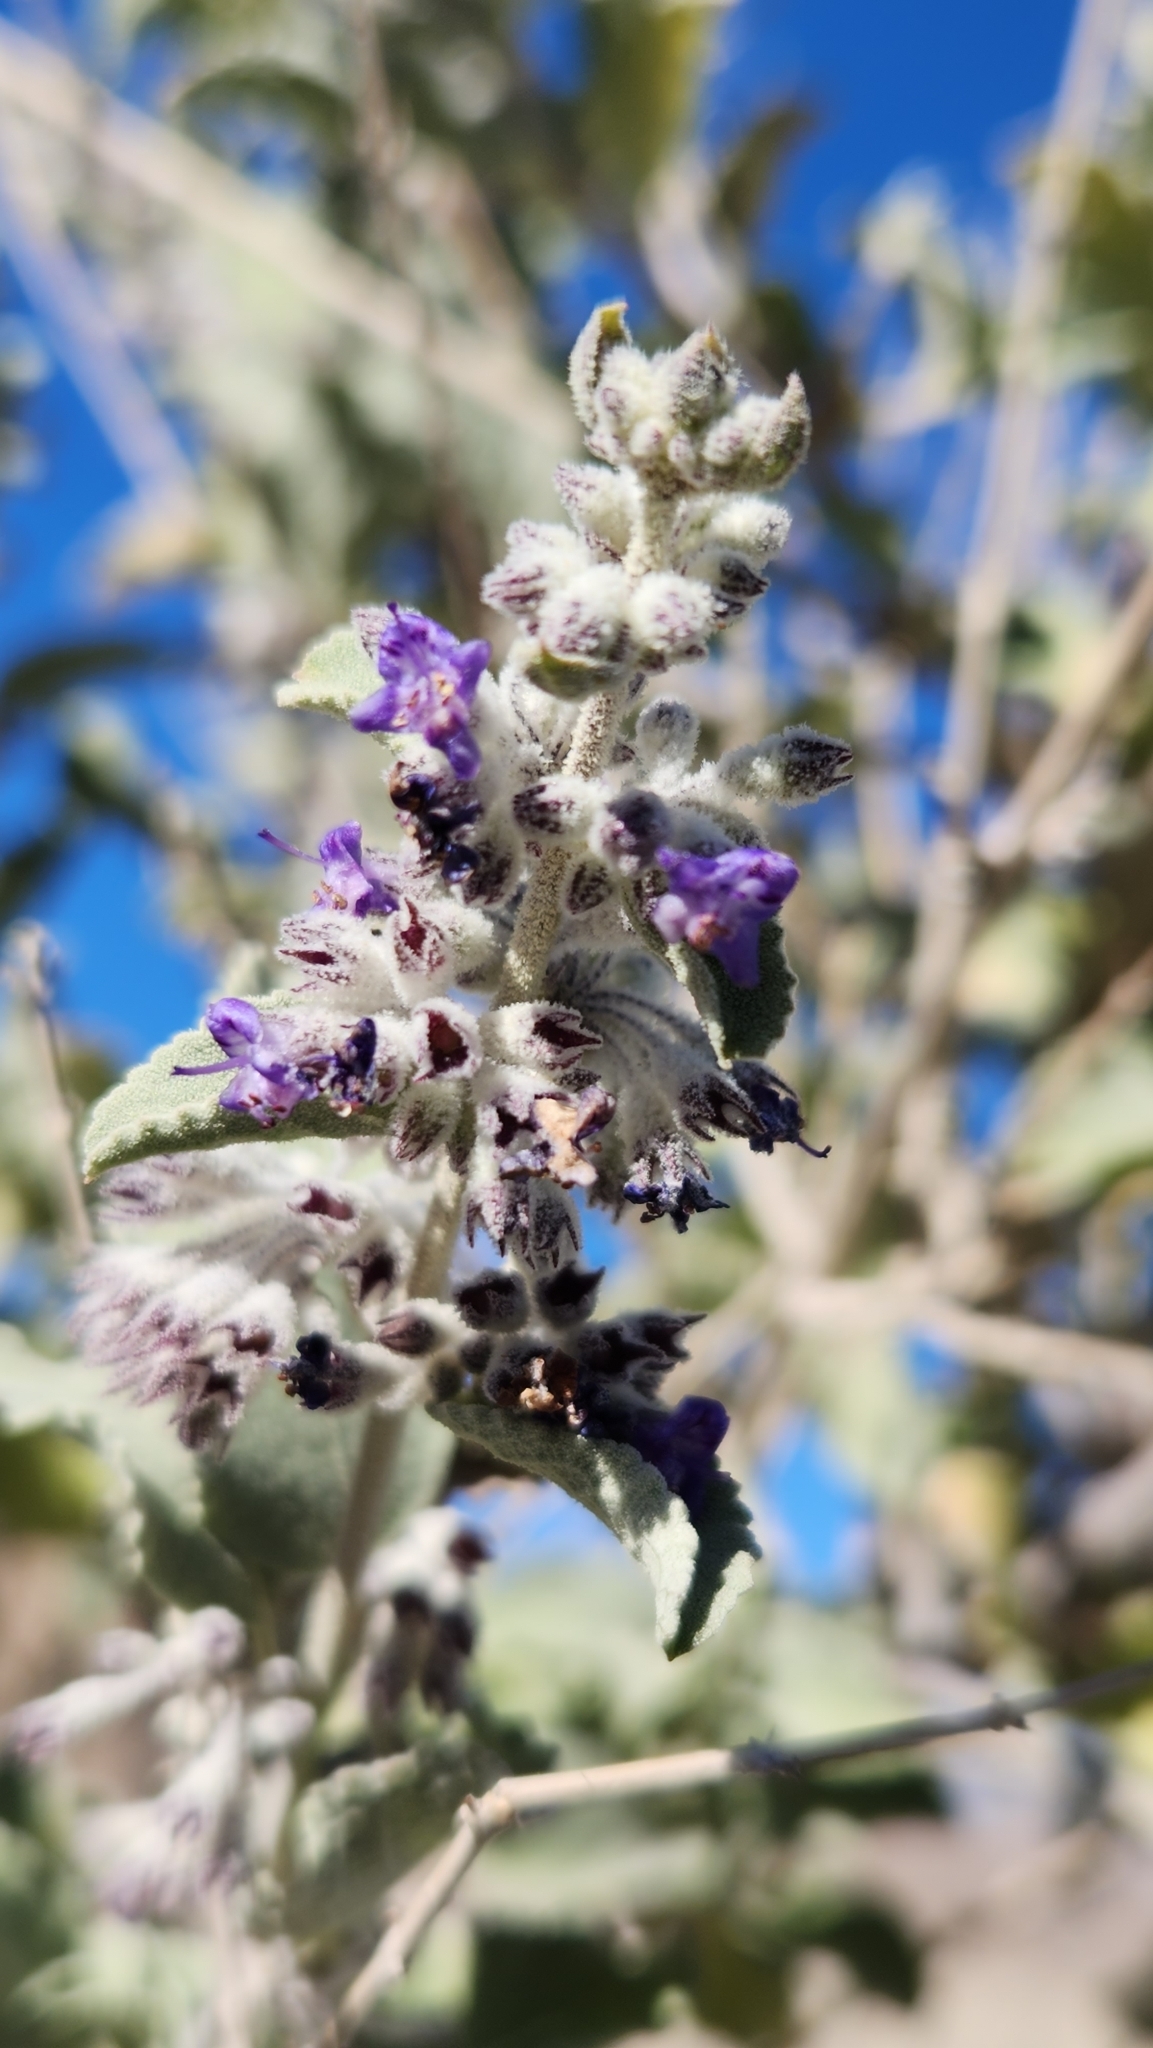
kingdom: Plantae
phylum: Tracheophyta
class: Magnoliopsida
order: Lamiales
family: Lamiaceae
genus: Condea
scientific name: Condea emoryi
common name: Chia
